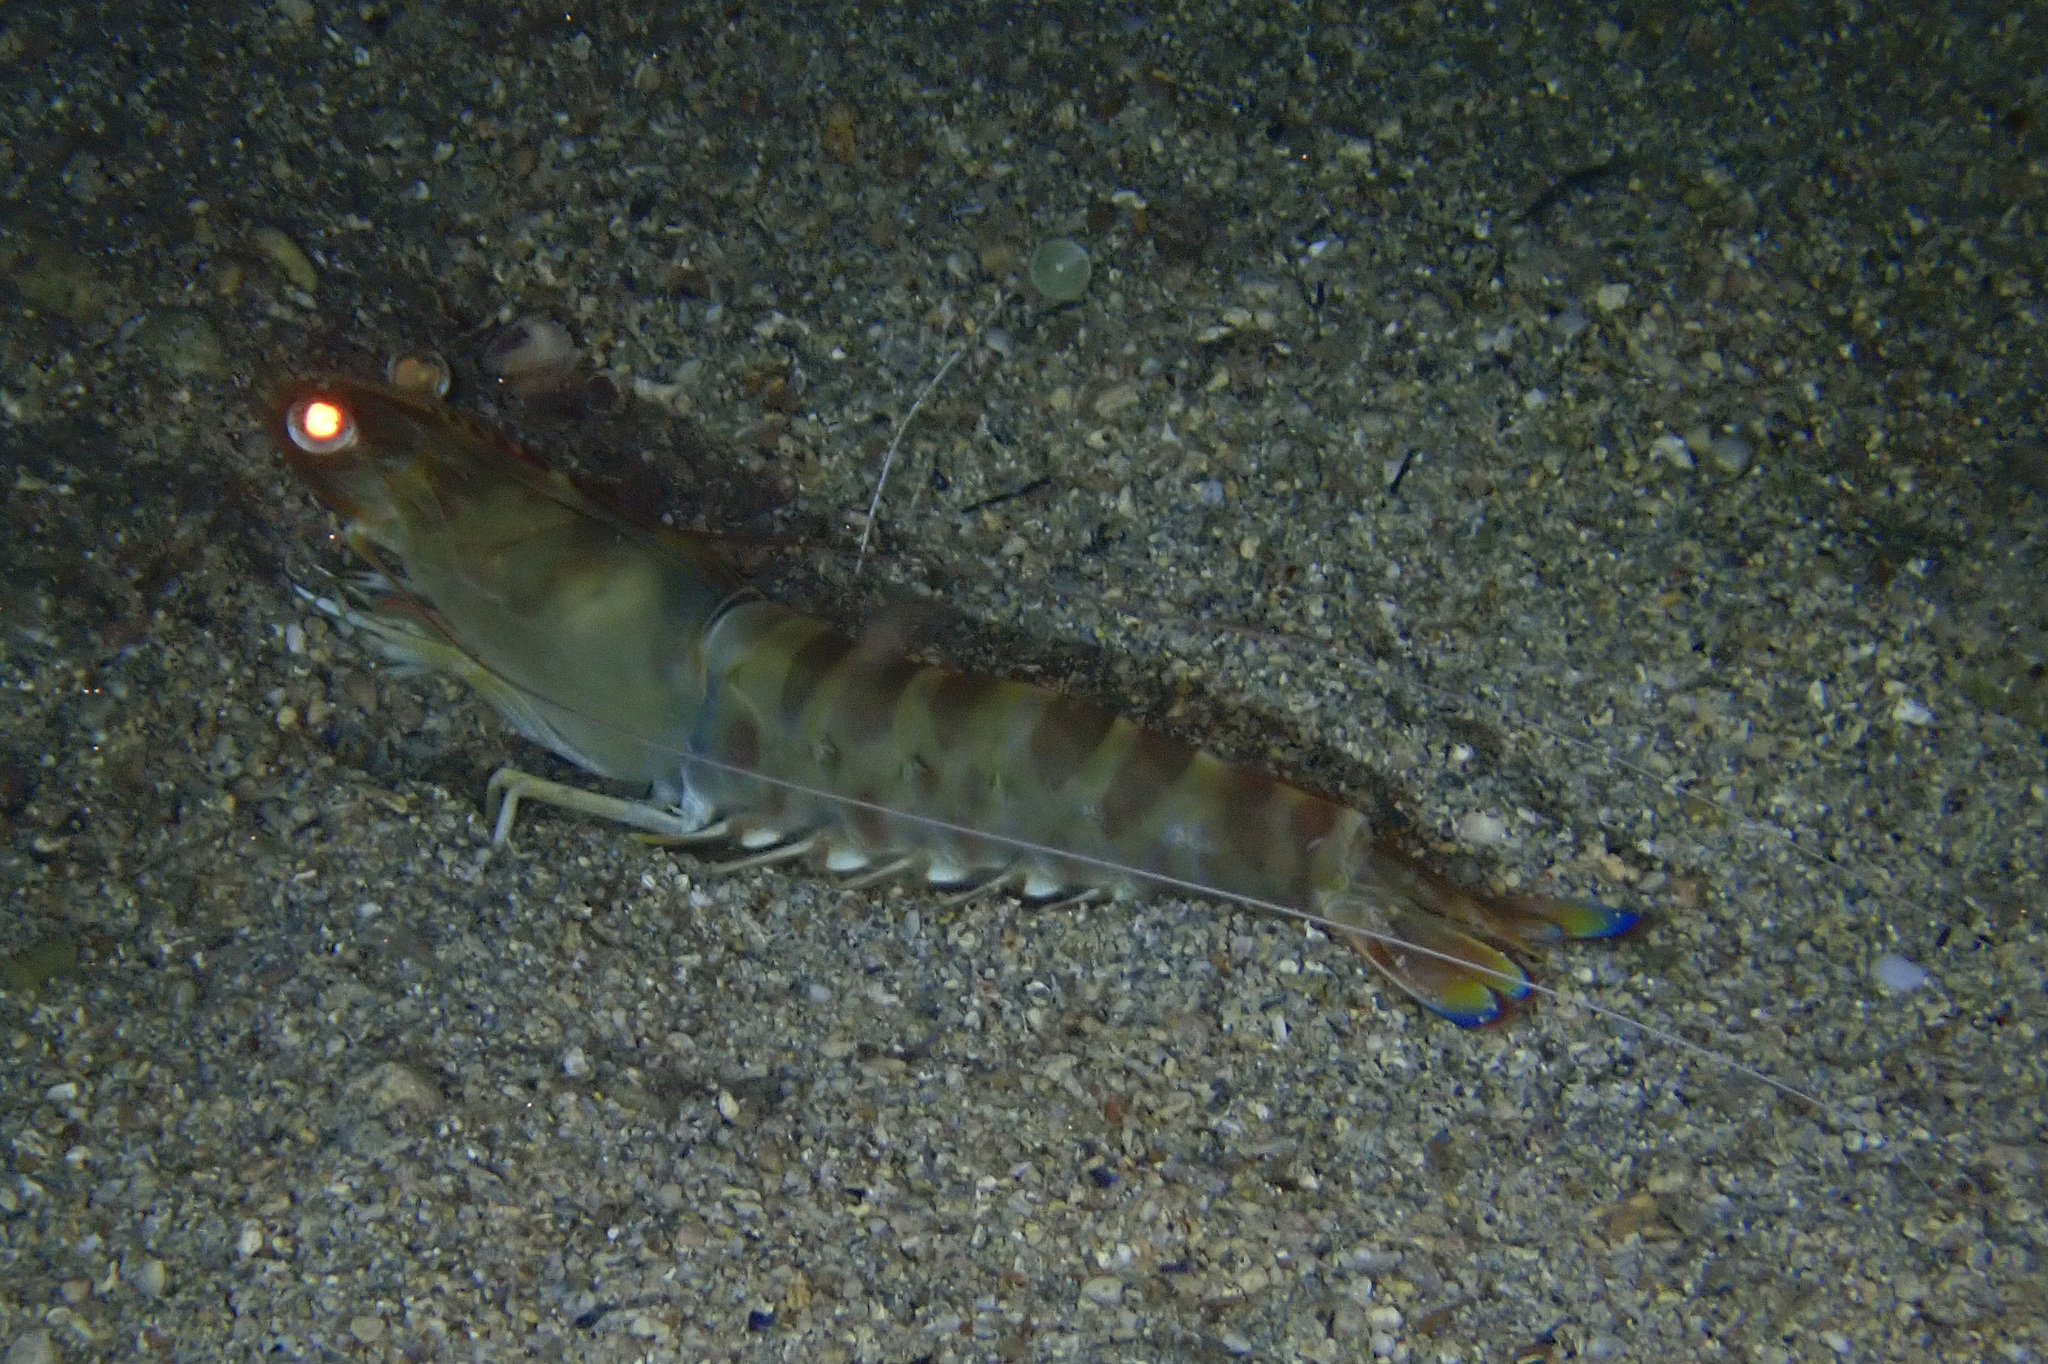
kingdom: Animalia
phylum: Arthropoda
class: Malacostraca
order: Decapoda
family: Penaeidae
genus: Penaeus
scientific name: Penaeus kerathurus
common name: Caramote prawn
